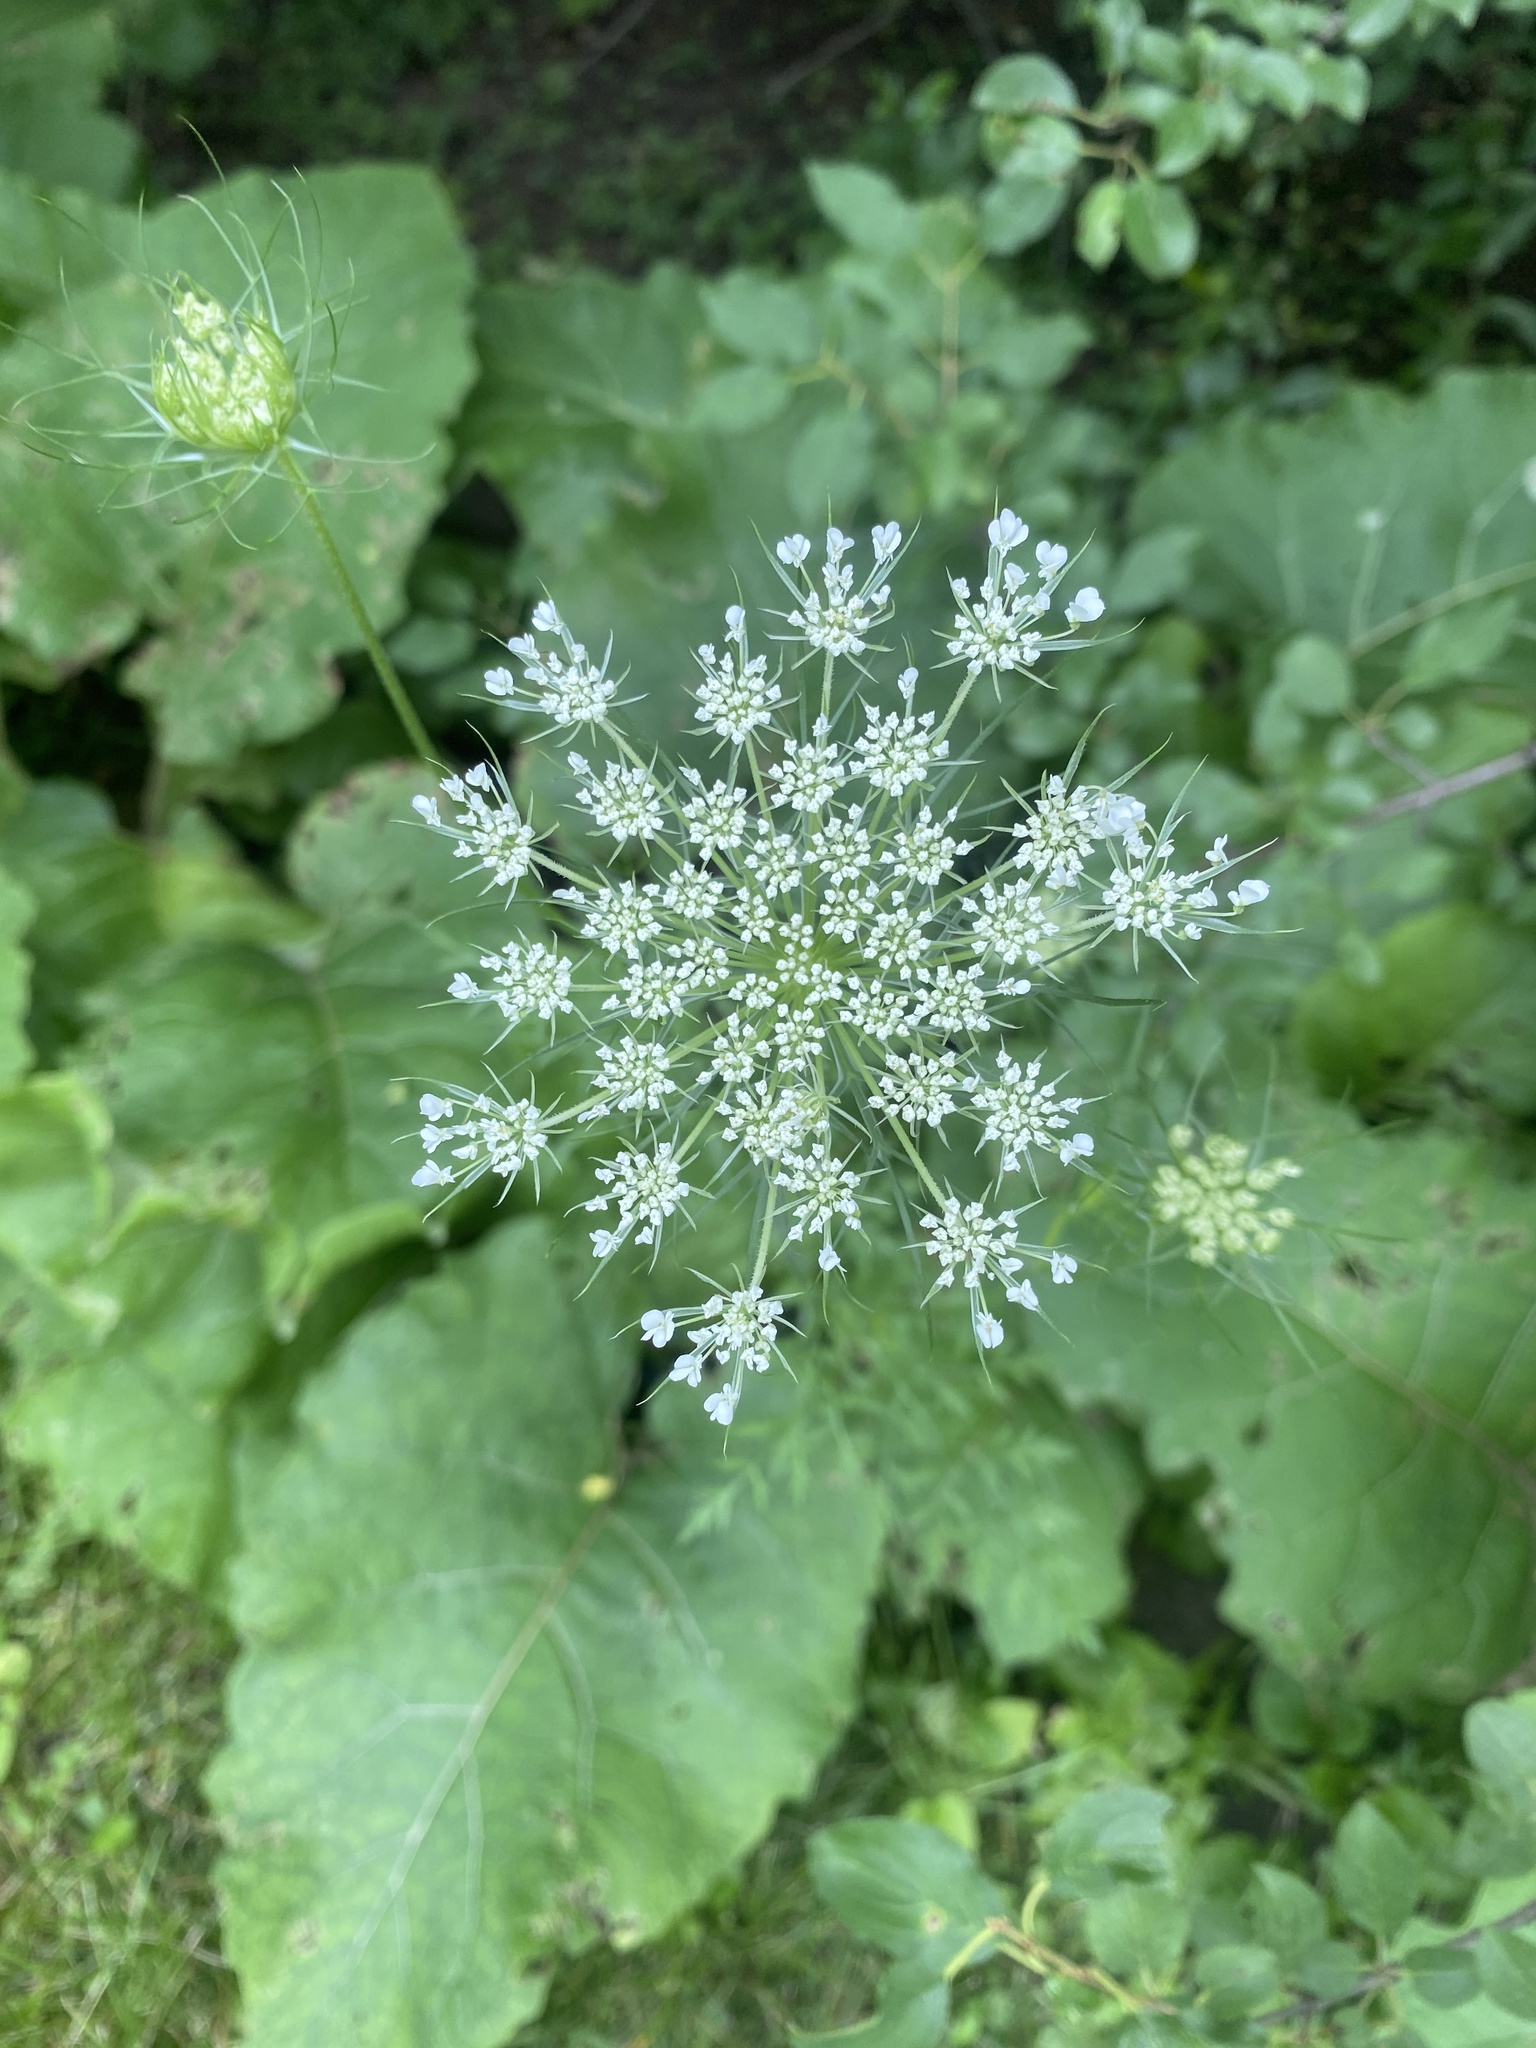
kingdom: Plantae
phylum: Tracheophyta
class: Magnoliopsida
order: Apiales
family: Apiaceae
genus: Daucus
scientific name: Daucus carota
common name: Wild carrot
